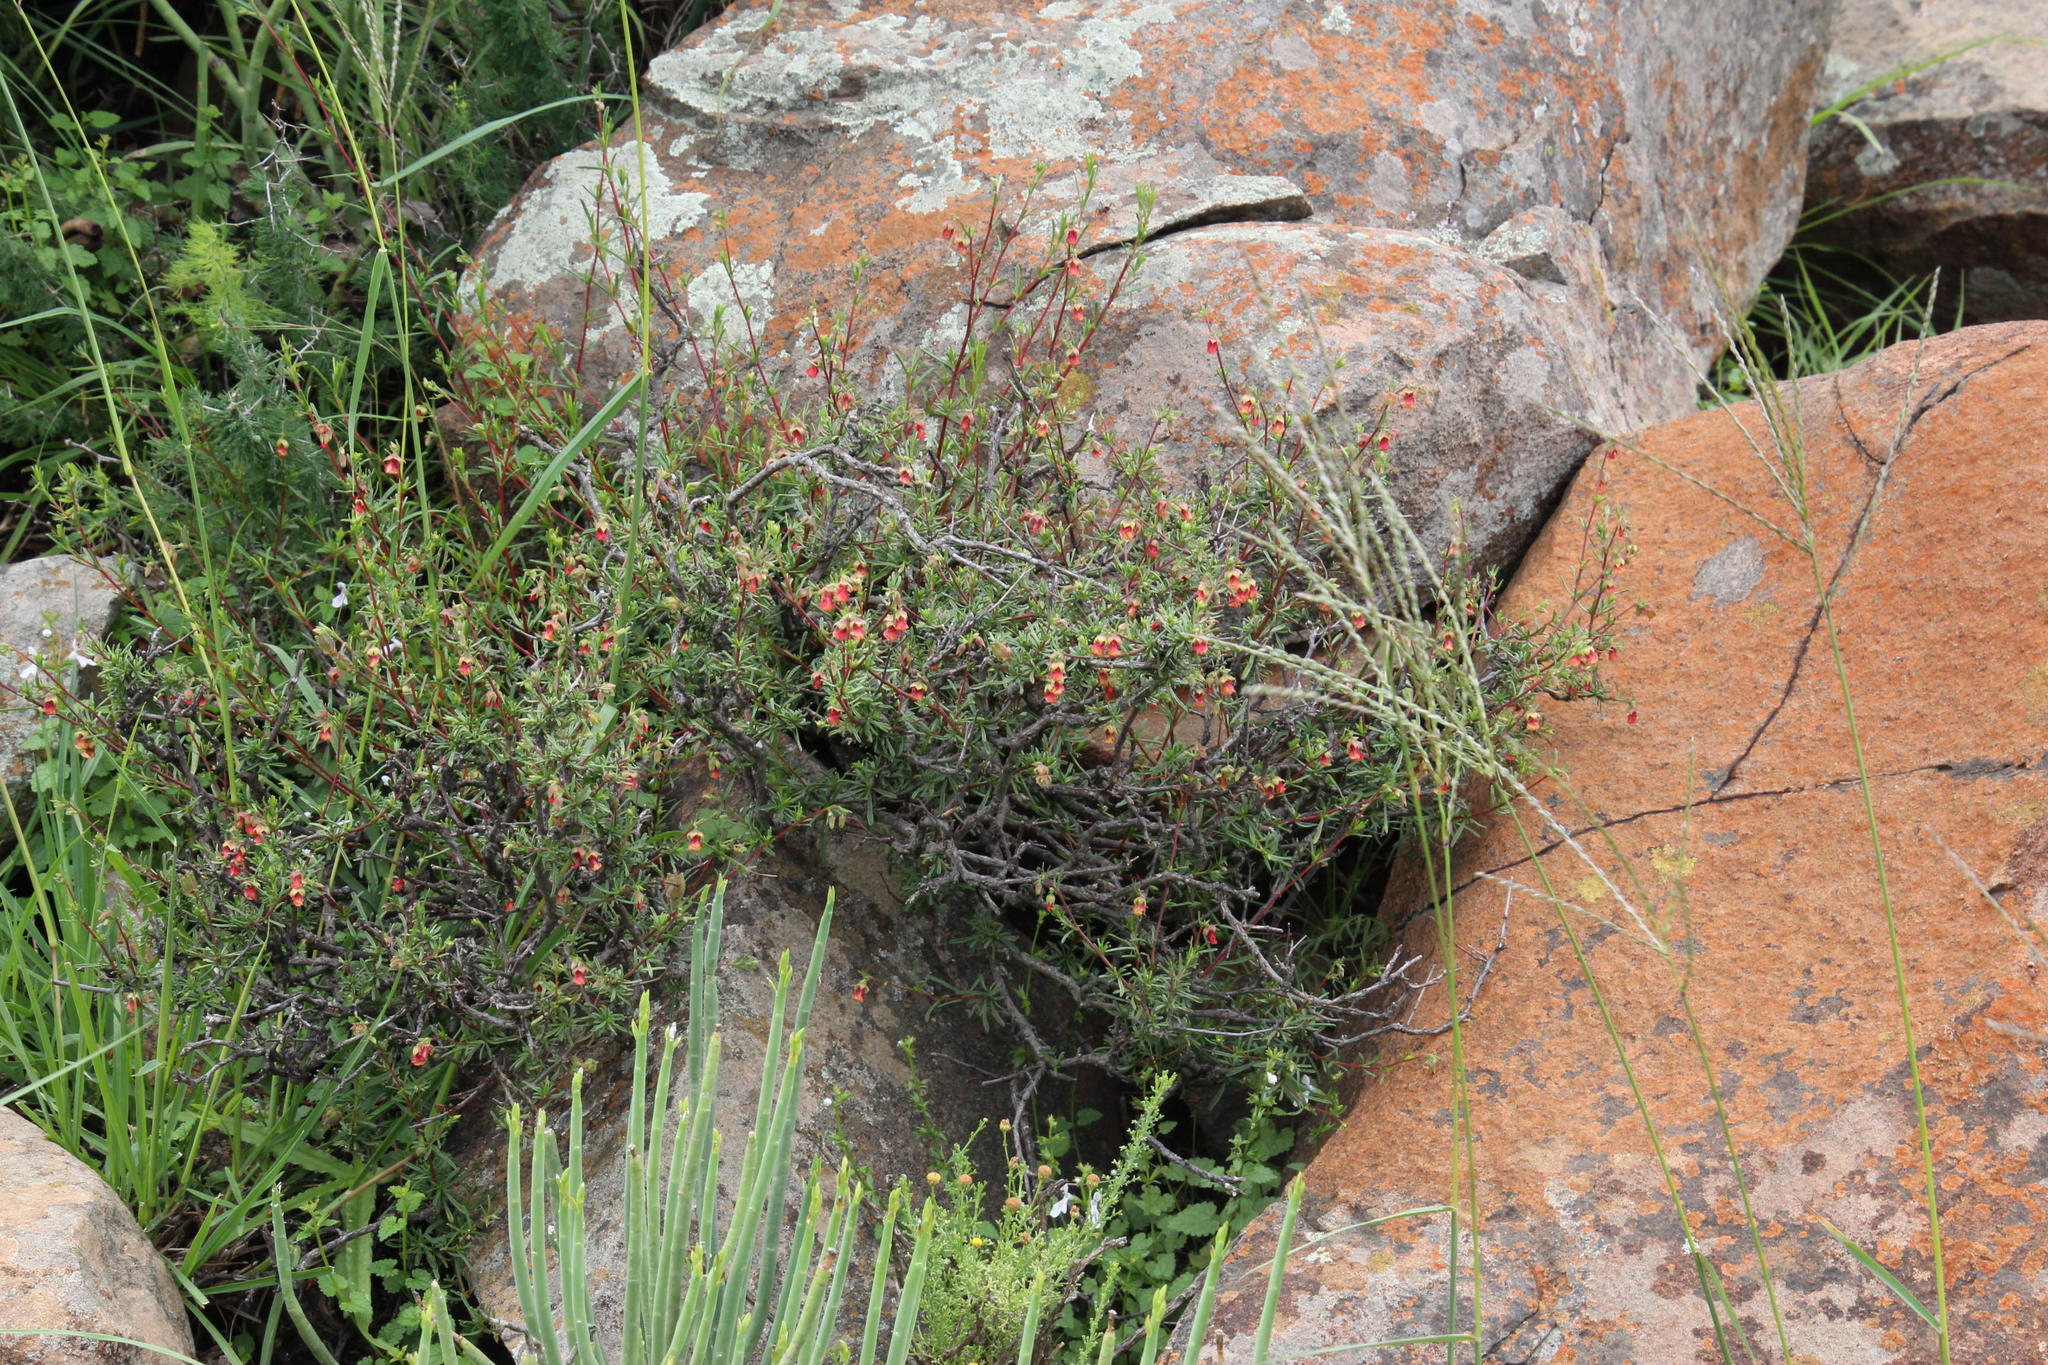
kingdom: Plantae
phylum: Tracheophyta
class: Magnoliopsida
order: Malvales
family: Malvaceae
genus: Hermannia
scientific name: Hermannia filifolia
